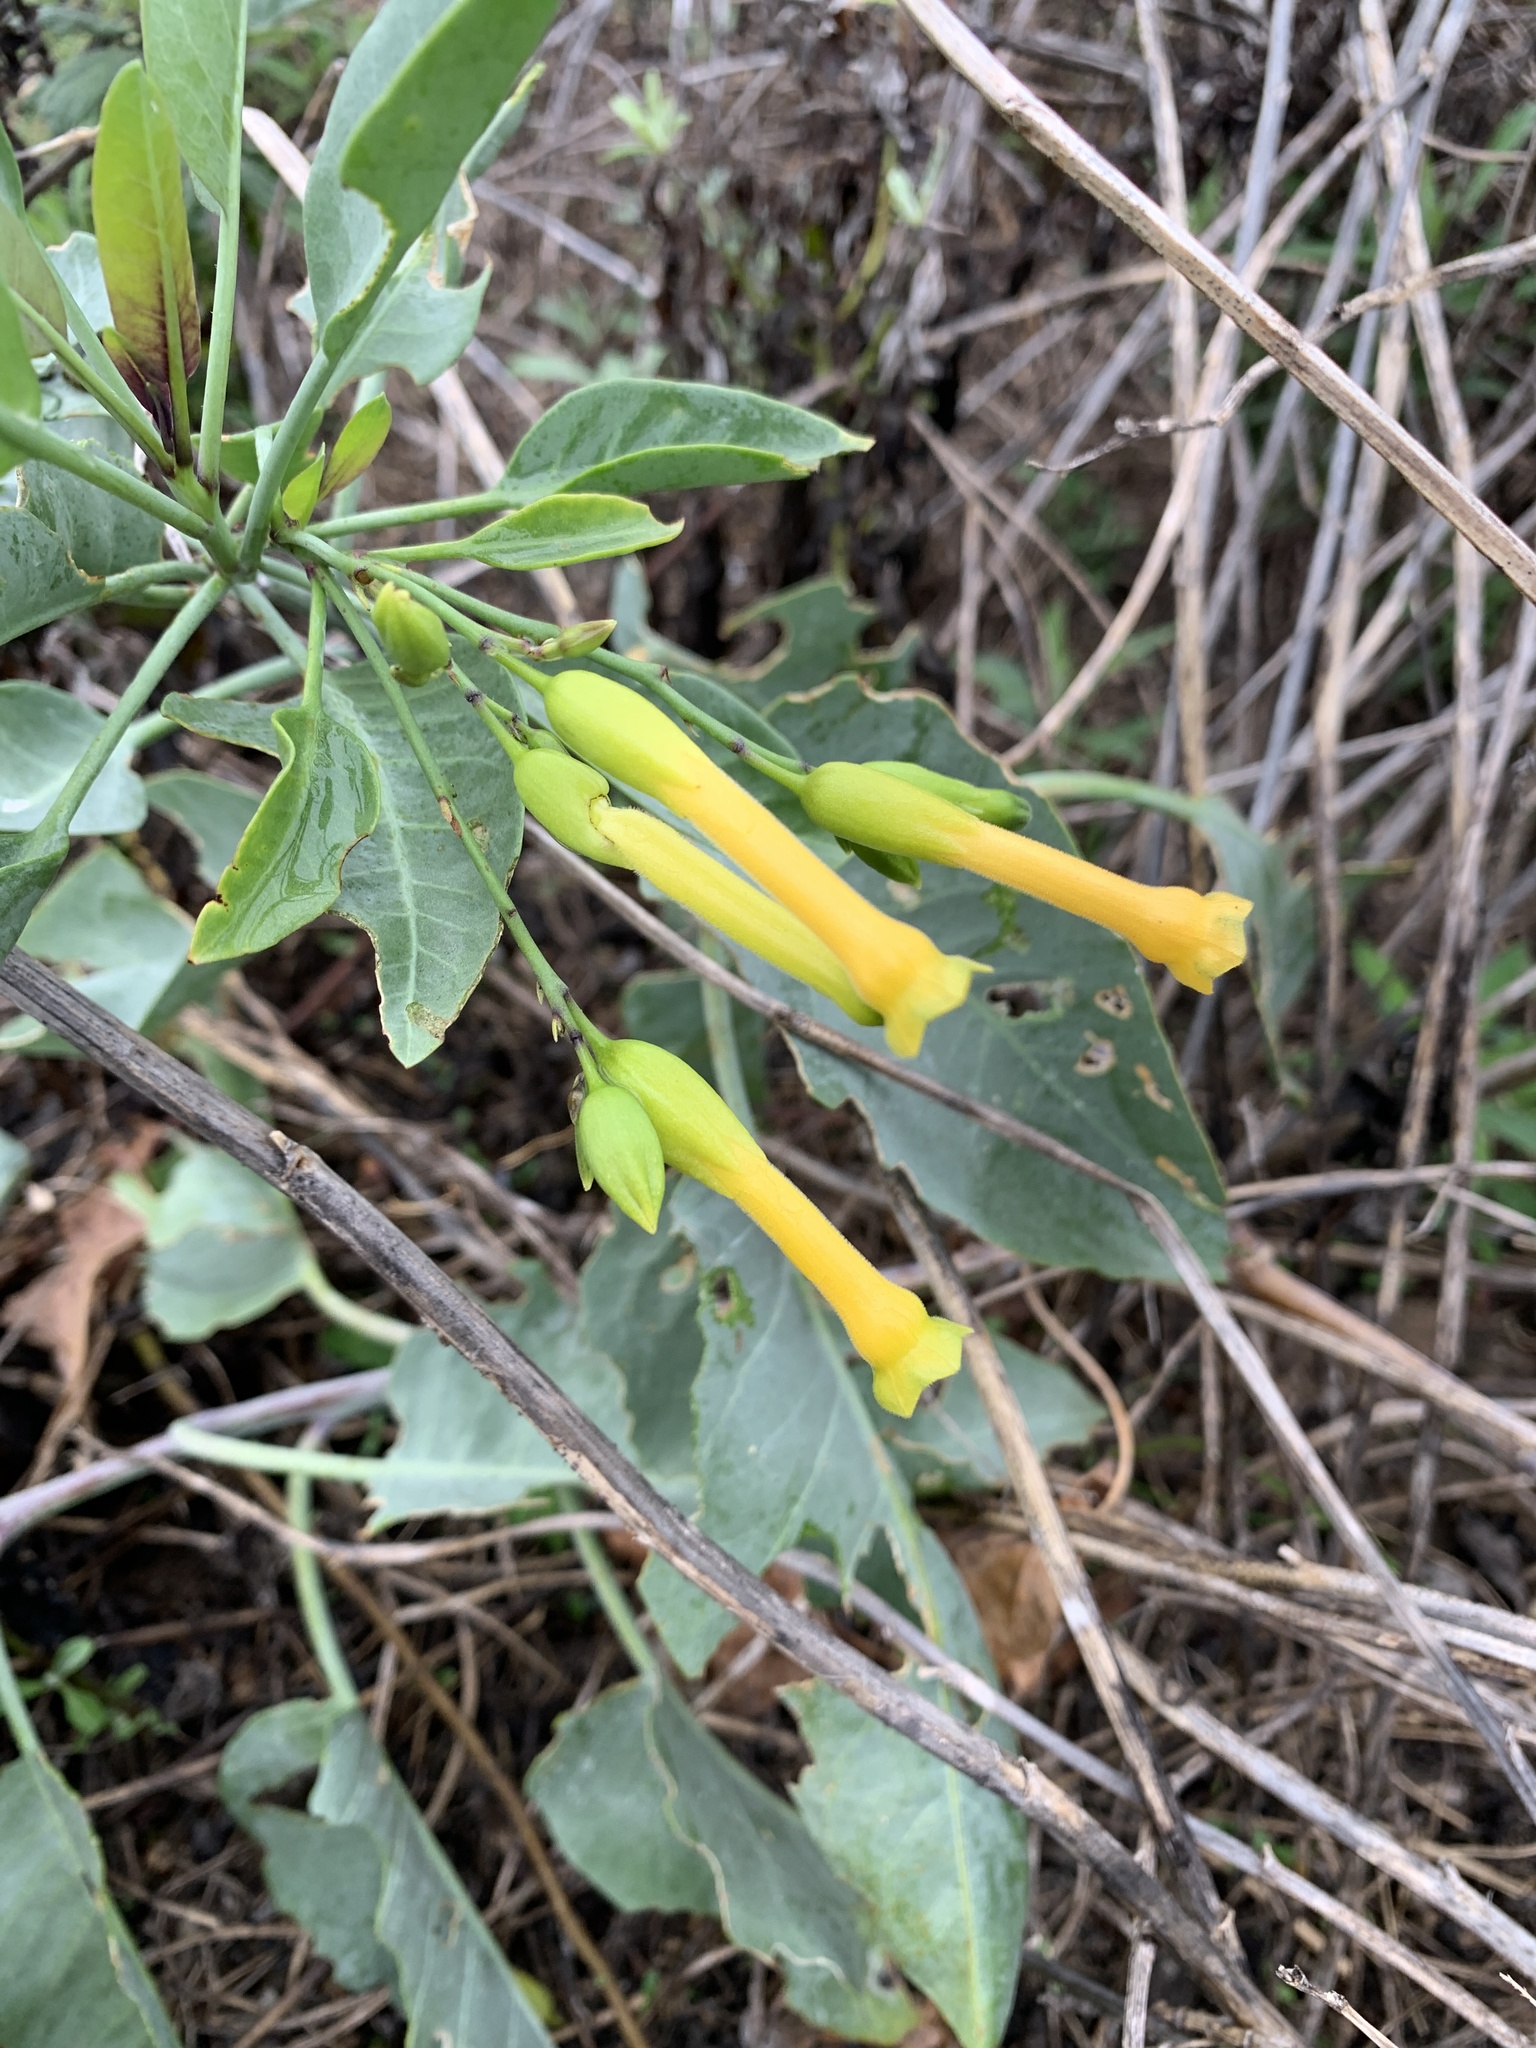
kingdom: Plantae
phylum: Tracheophyta
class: Magnoliopsida
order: Solanales
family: Solanaceae
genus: Nicotiana
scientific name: Nicotiana glauca
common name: Tree tobacco
